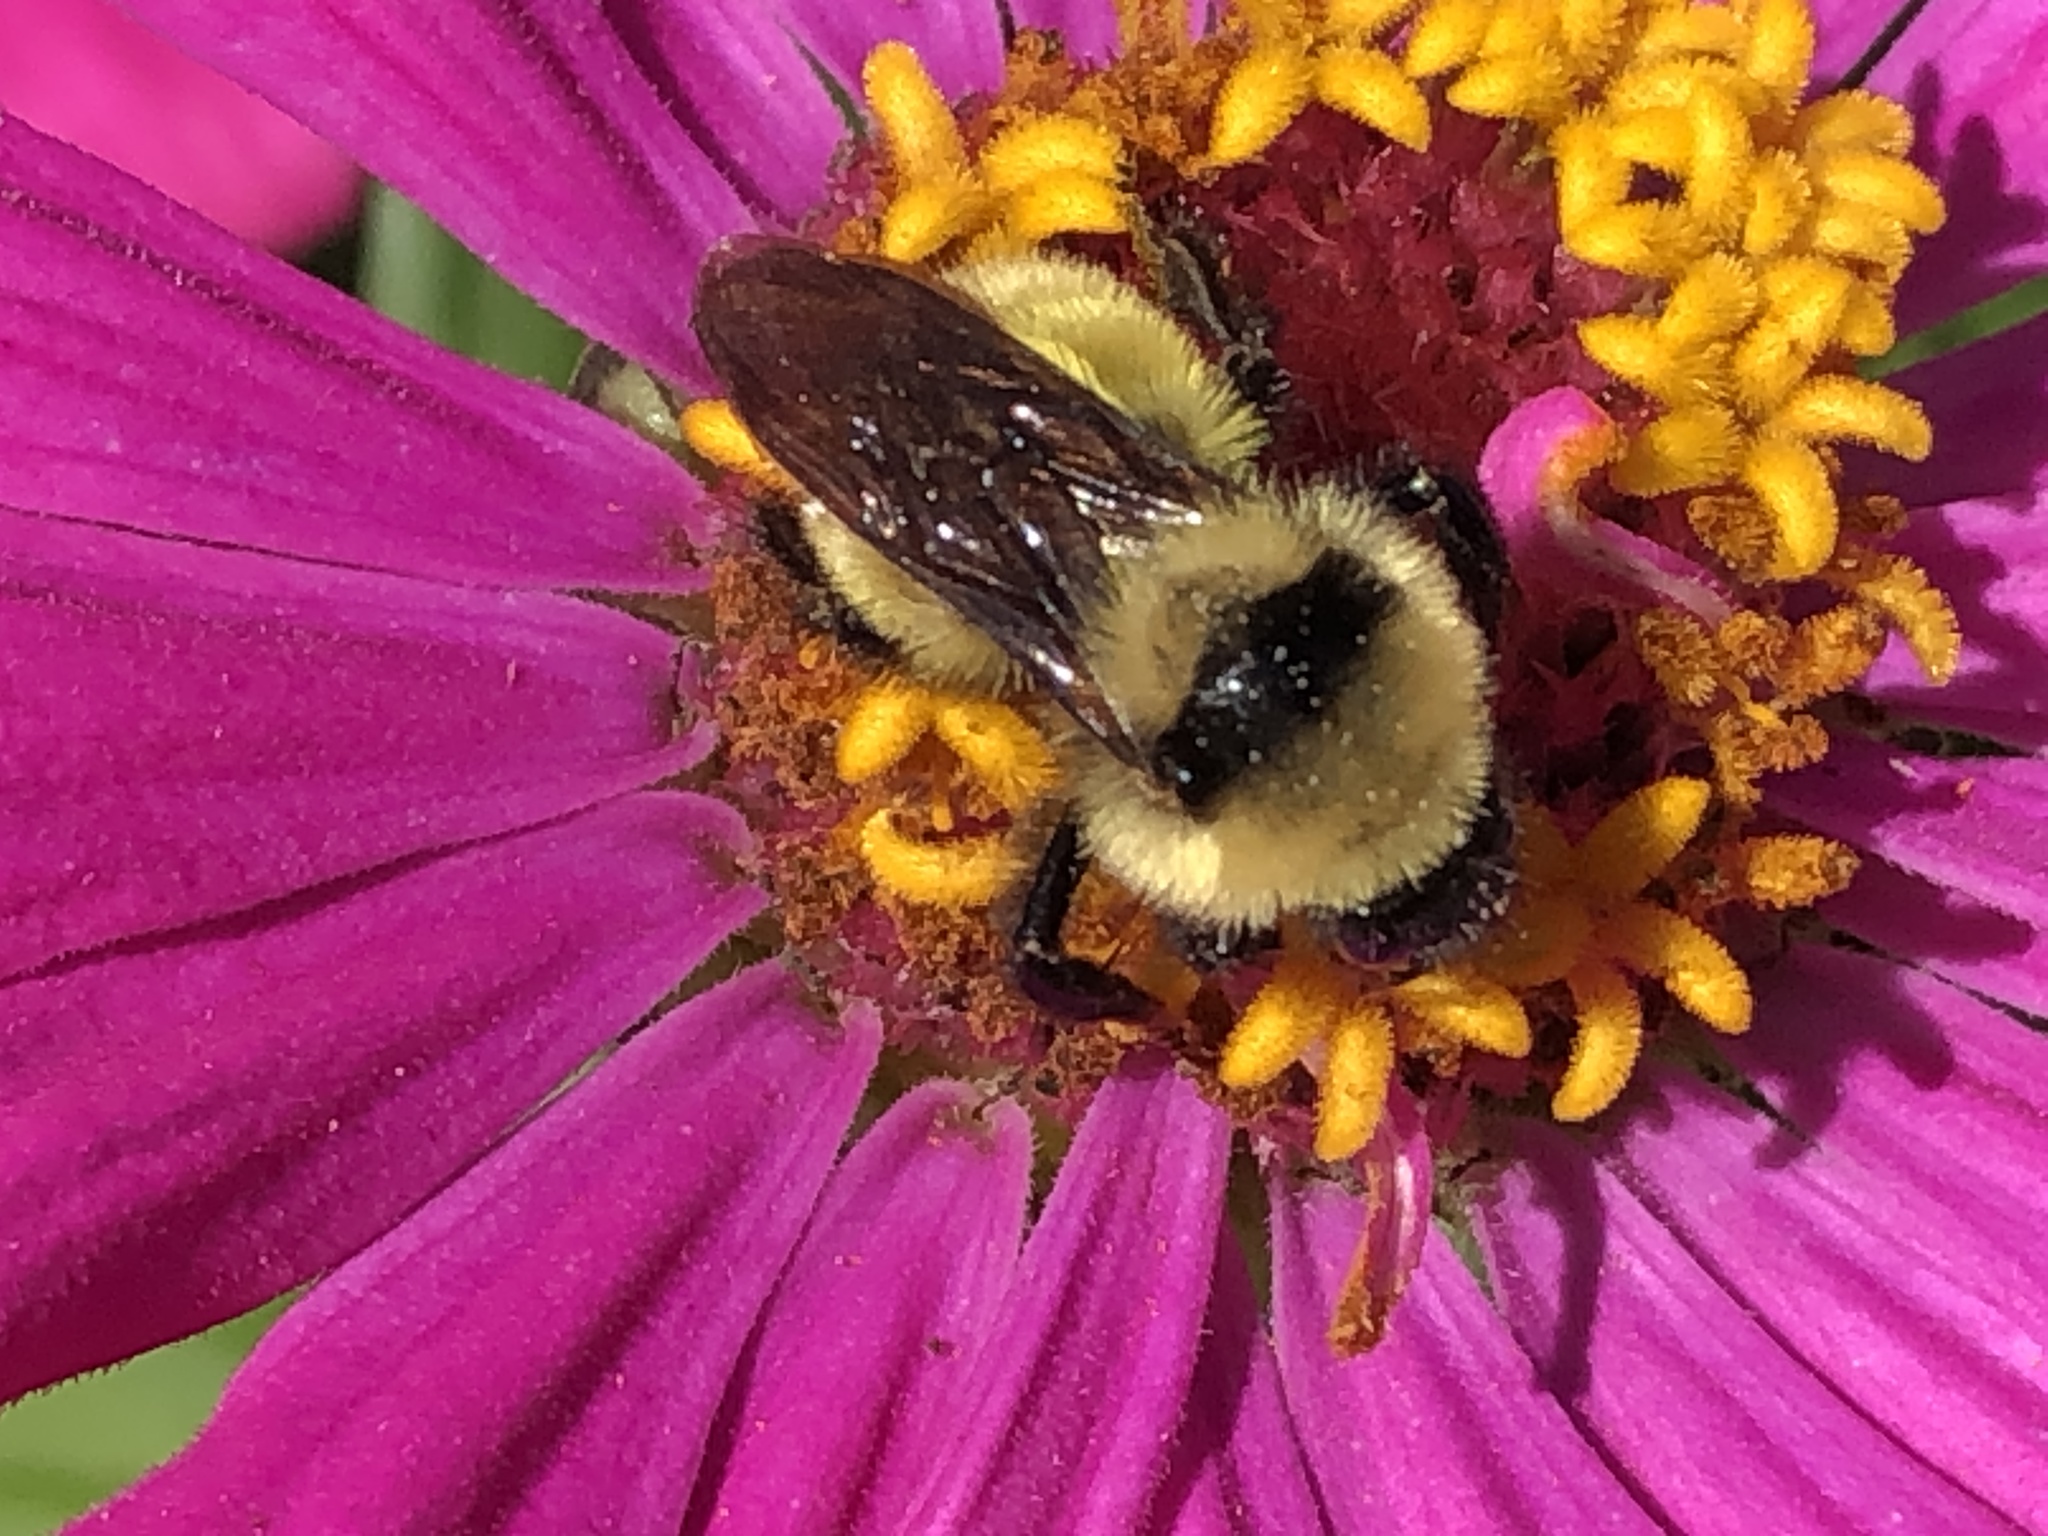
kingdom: Animalia
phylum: Arthropoda
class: Insecta
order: Hymenoptera
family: Apidae
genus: Bombus
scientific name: Bombus fervidus
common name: Yellow bumble bee
